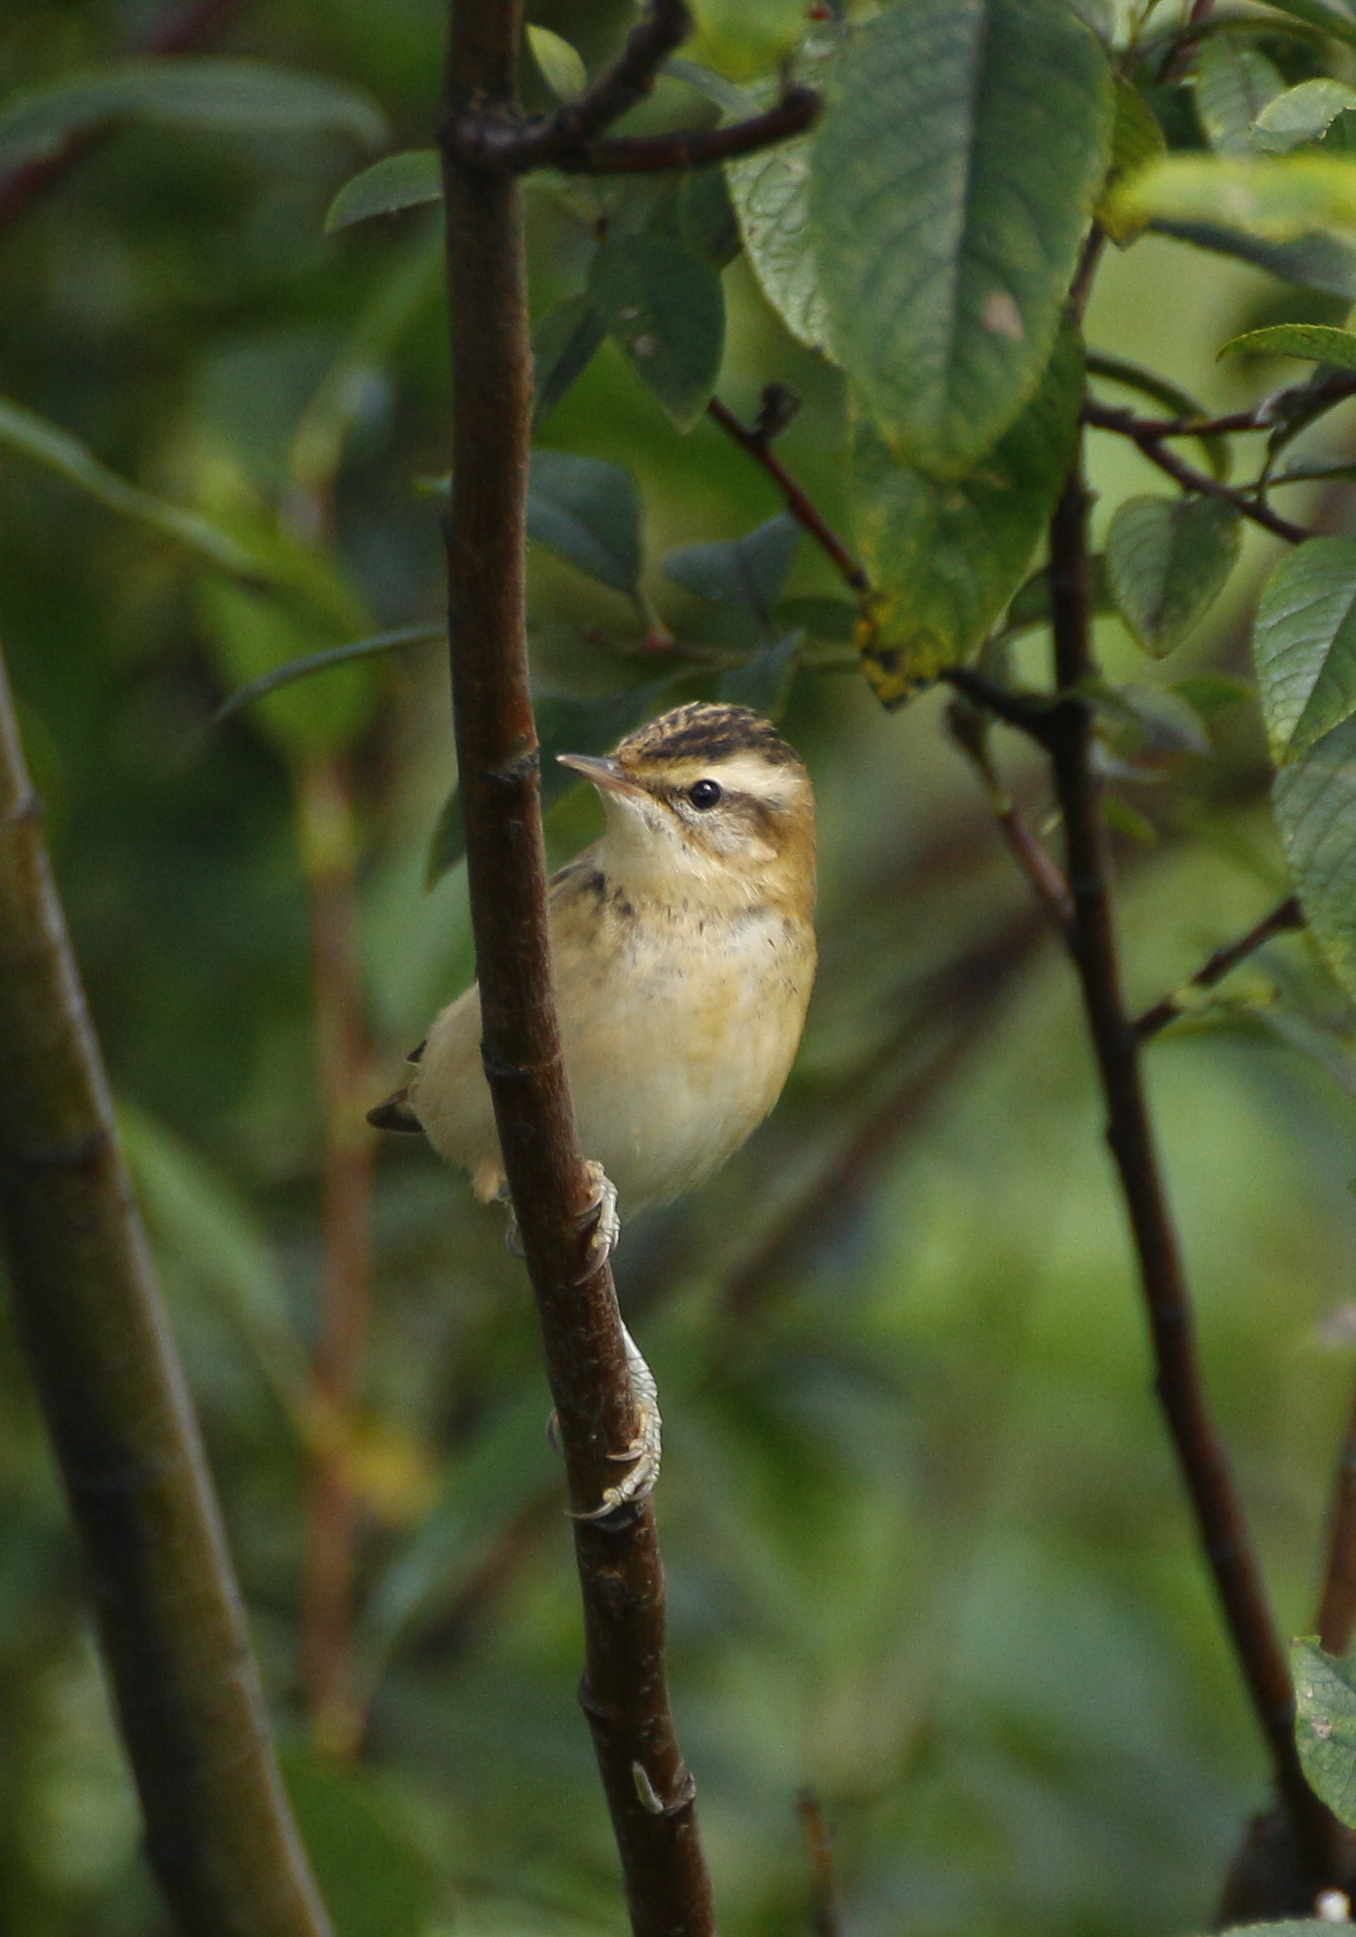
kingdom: Animalia
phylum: Chordata
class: Aves
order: Passeriformes
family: Acrocephalidae
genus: Acrocephalus
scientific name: Acrocephalus schoenobaenus
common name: Sedge warbler
